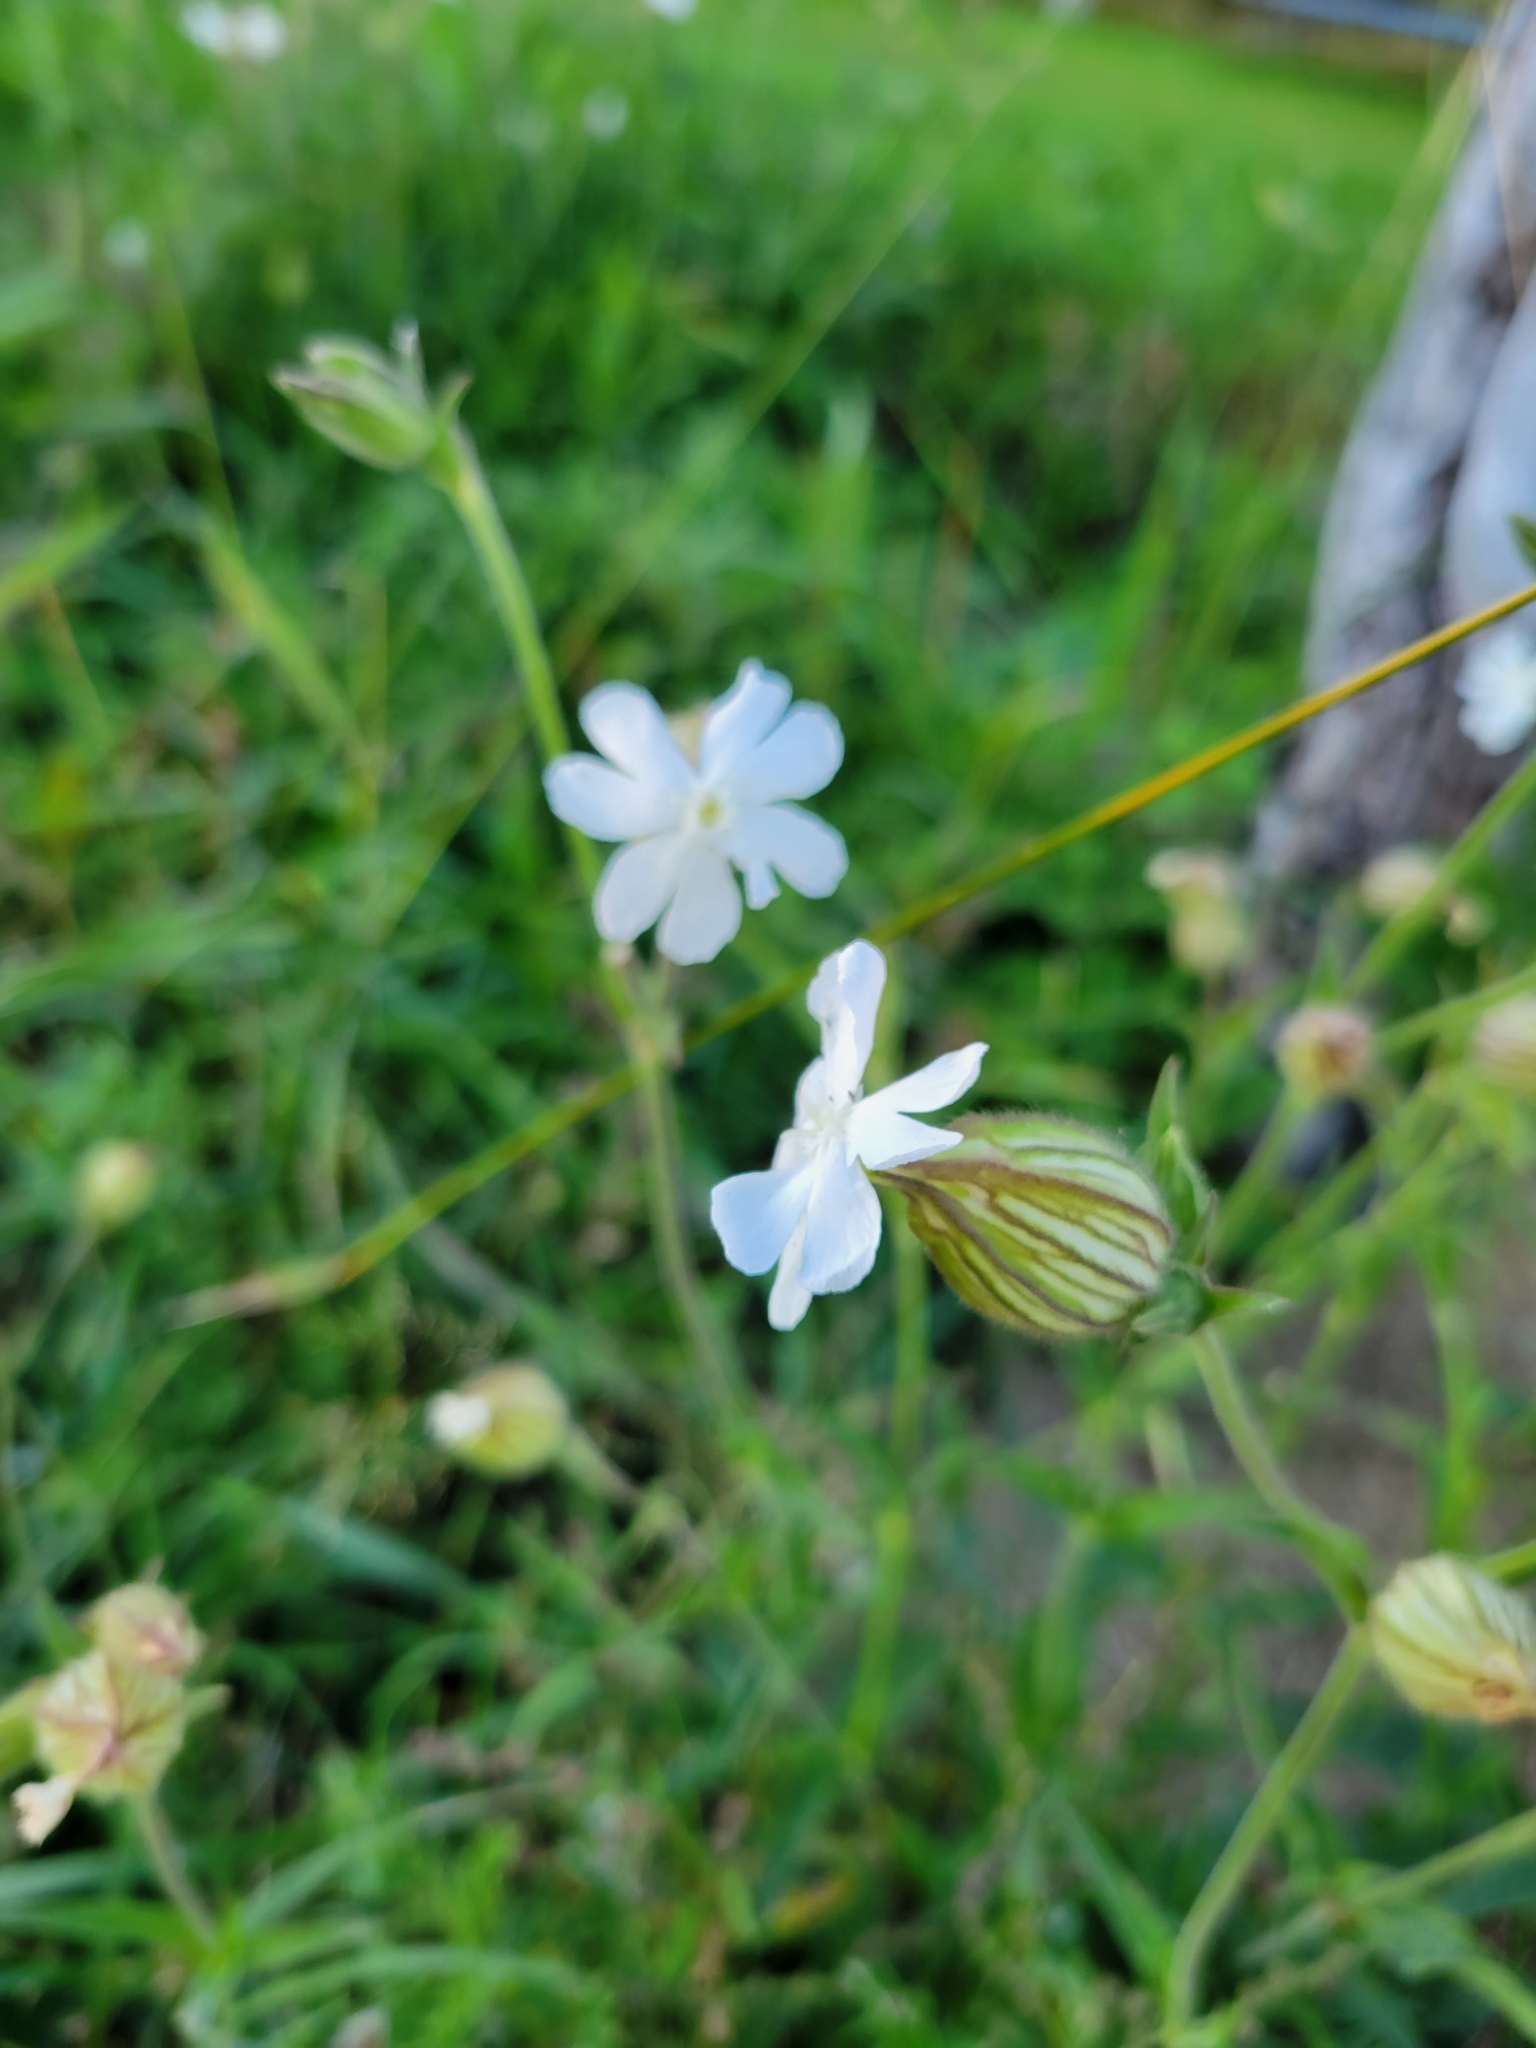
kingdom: Plantae
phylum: Tracheophyta
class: Magnoliopsida
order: Caryophyllales
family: Caryophyllaceae
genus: Silene
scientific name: Silene latifolia
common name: White campion
